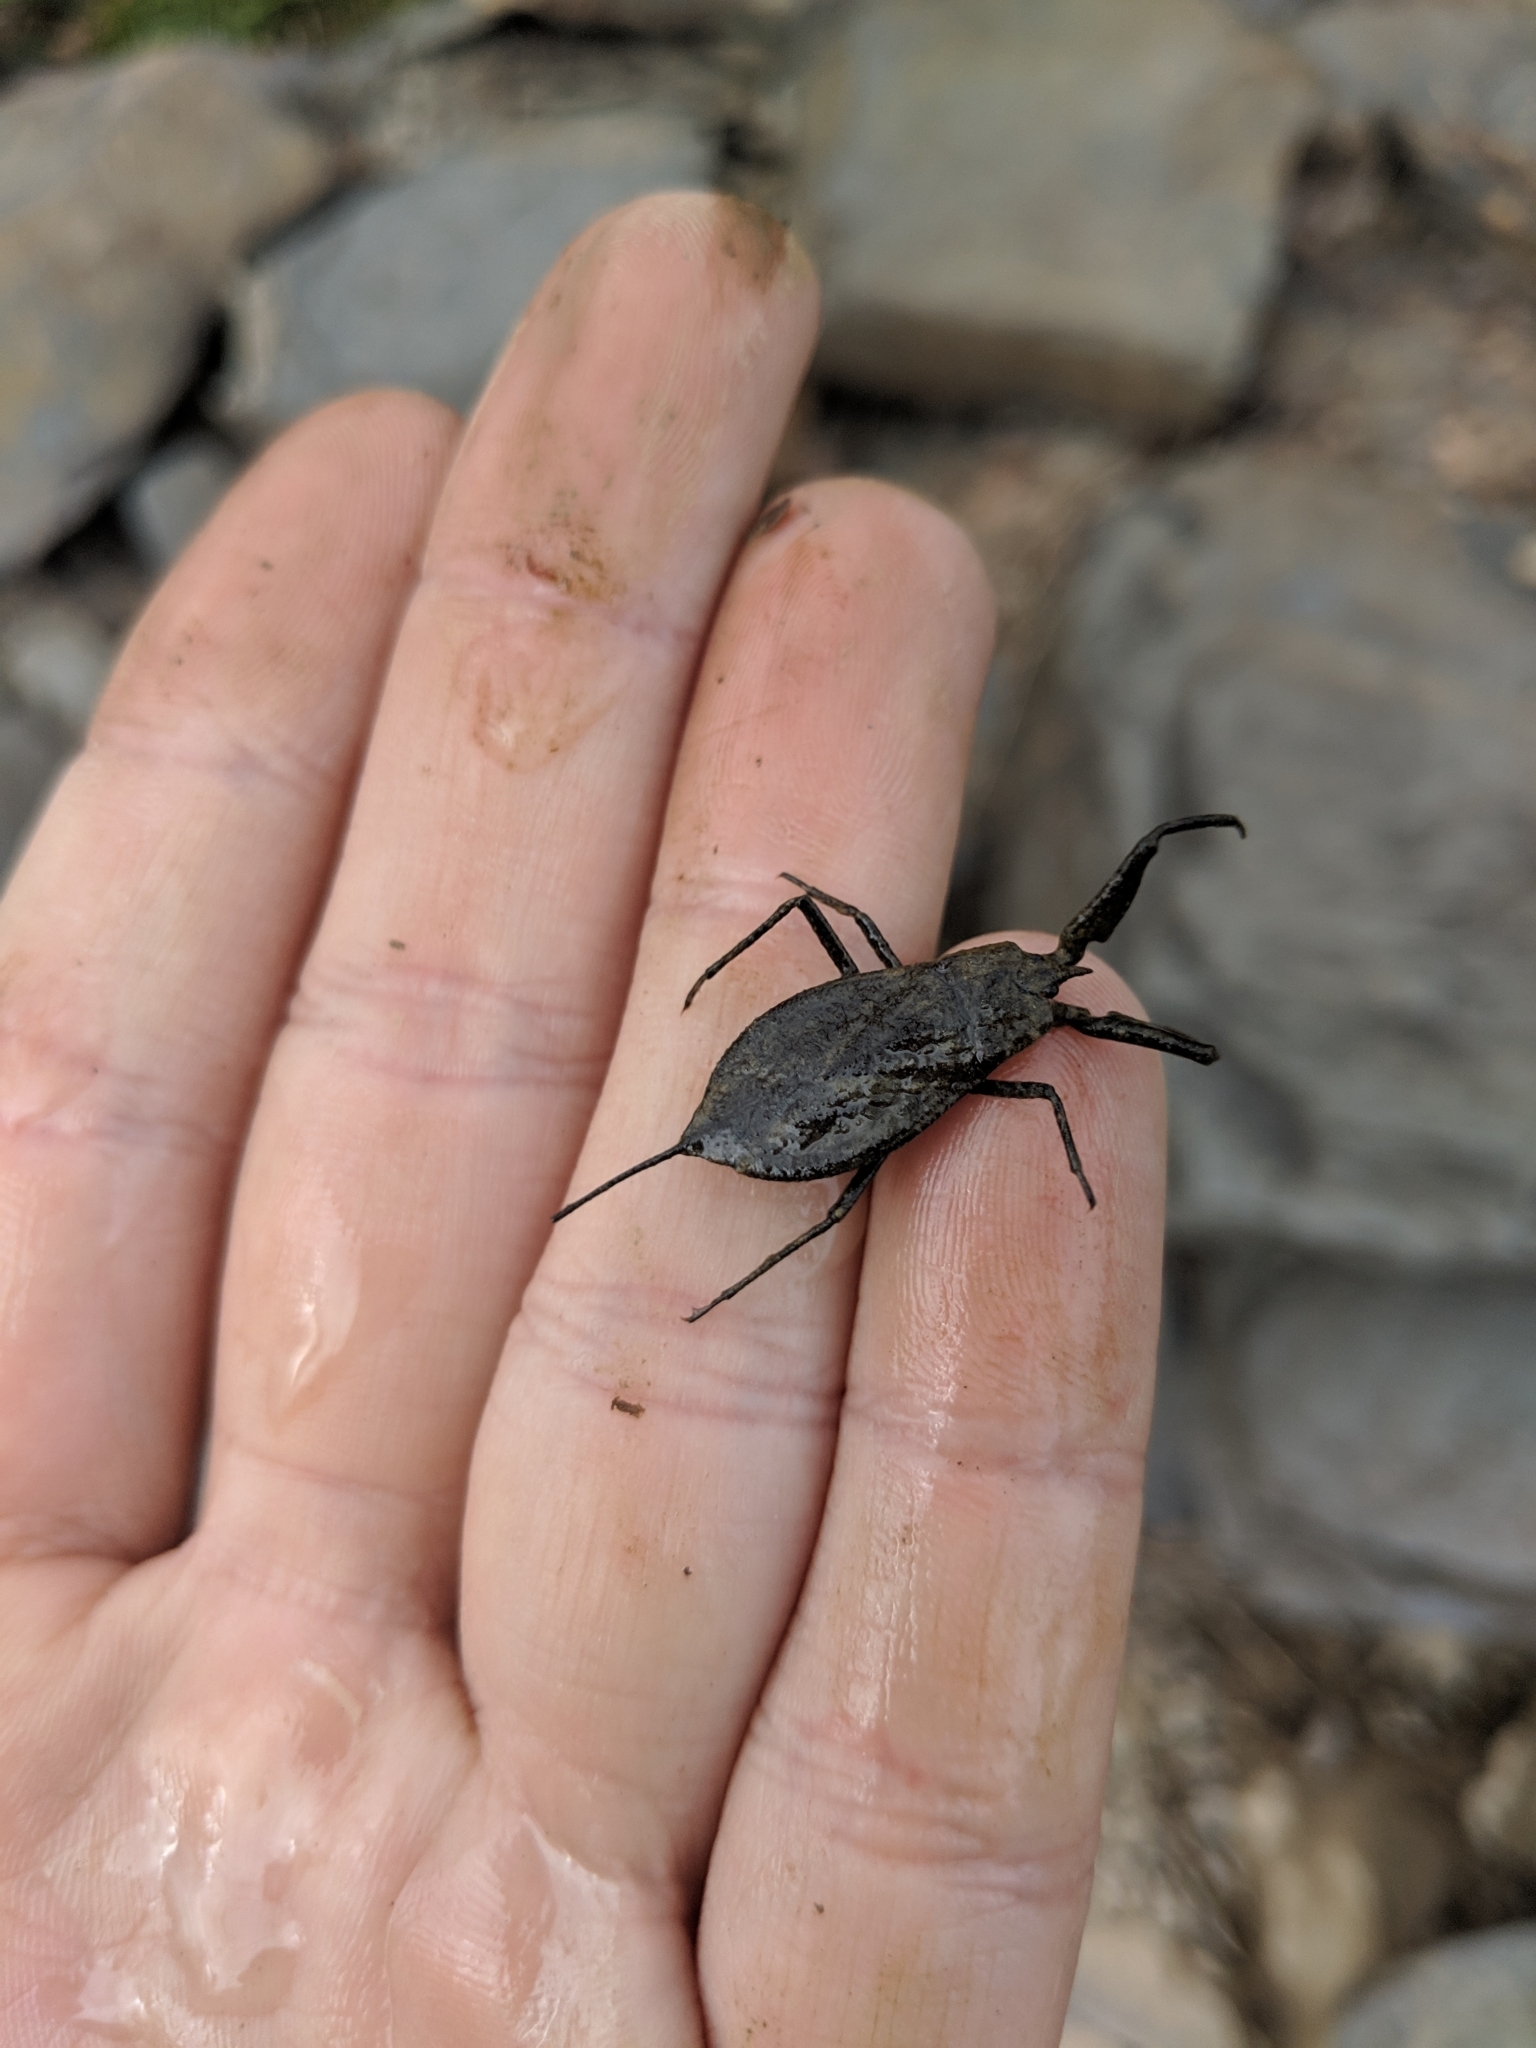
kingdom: Animalia
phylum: Arthropoda
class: Insecta
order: Hemiptera
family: Nepidae
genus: Nepa
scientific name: Nepa apiculata
